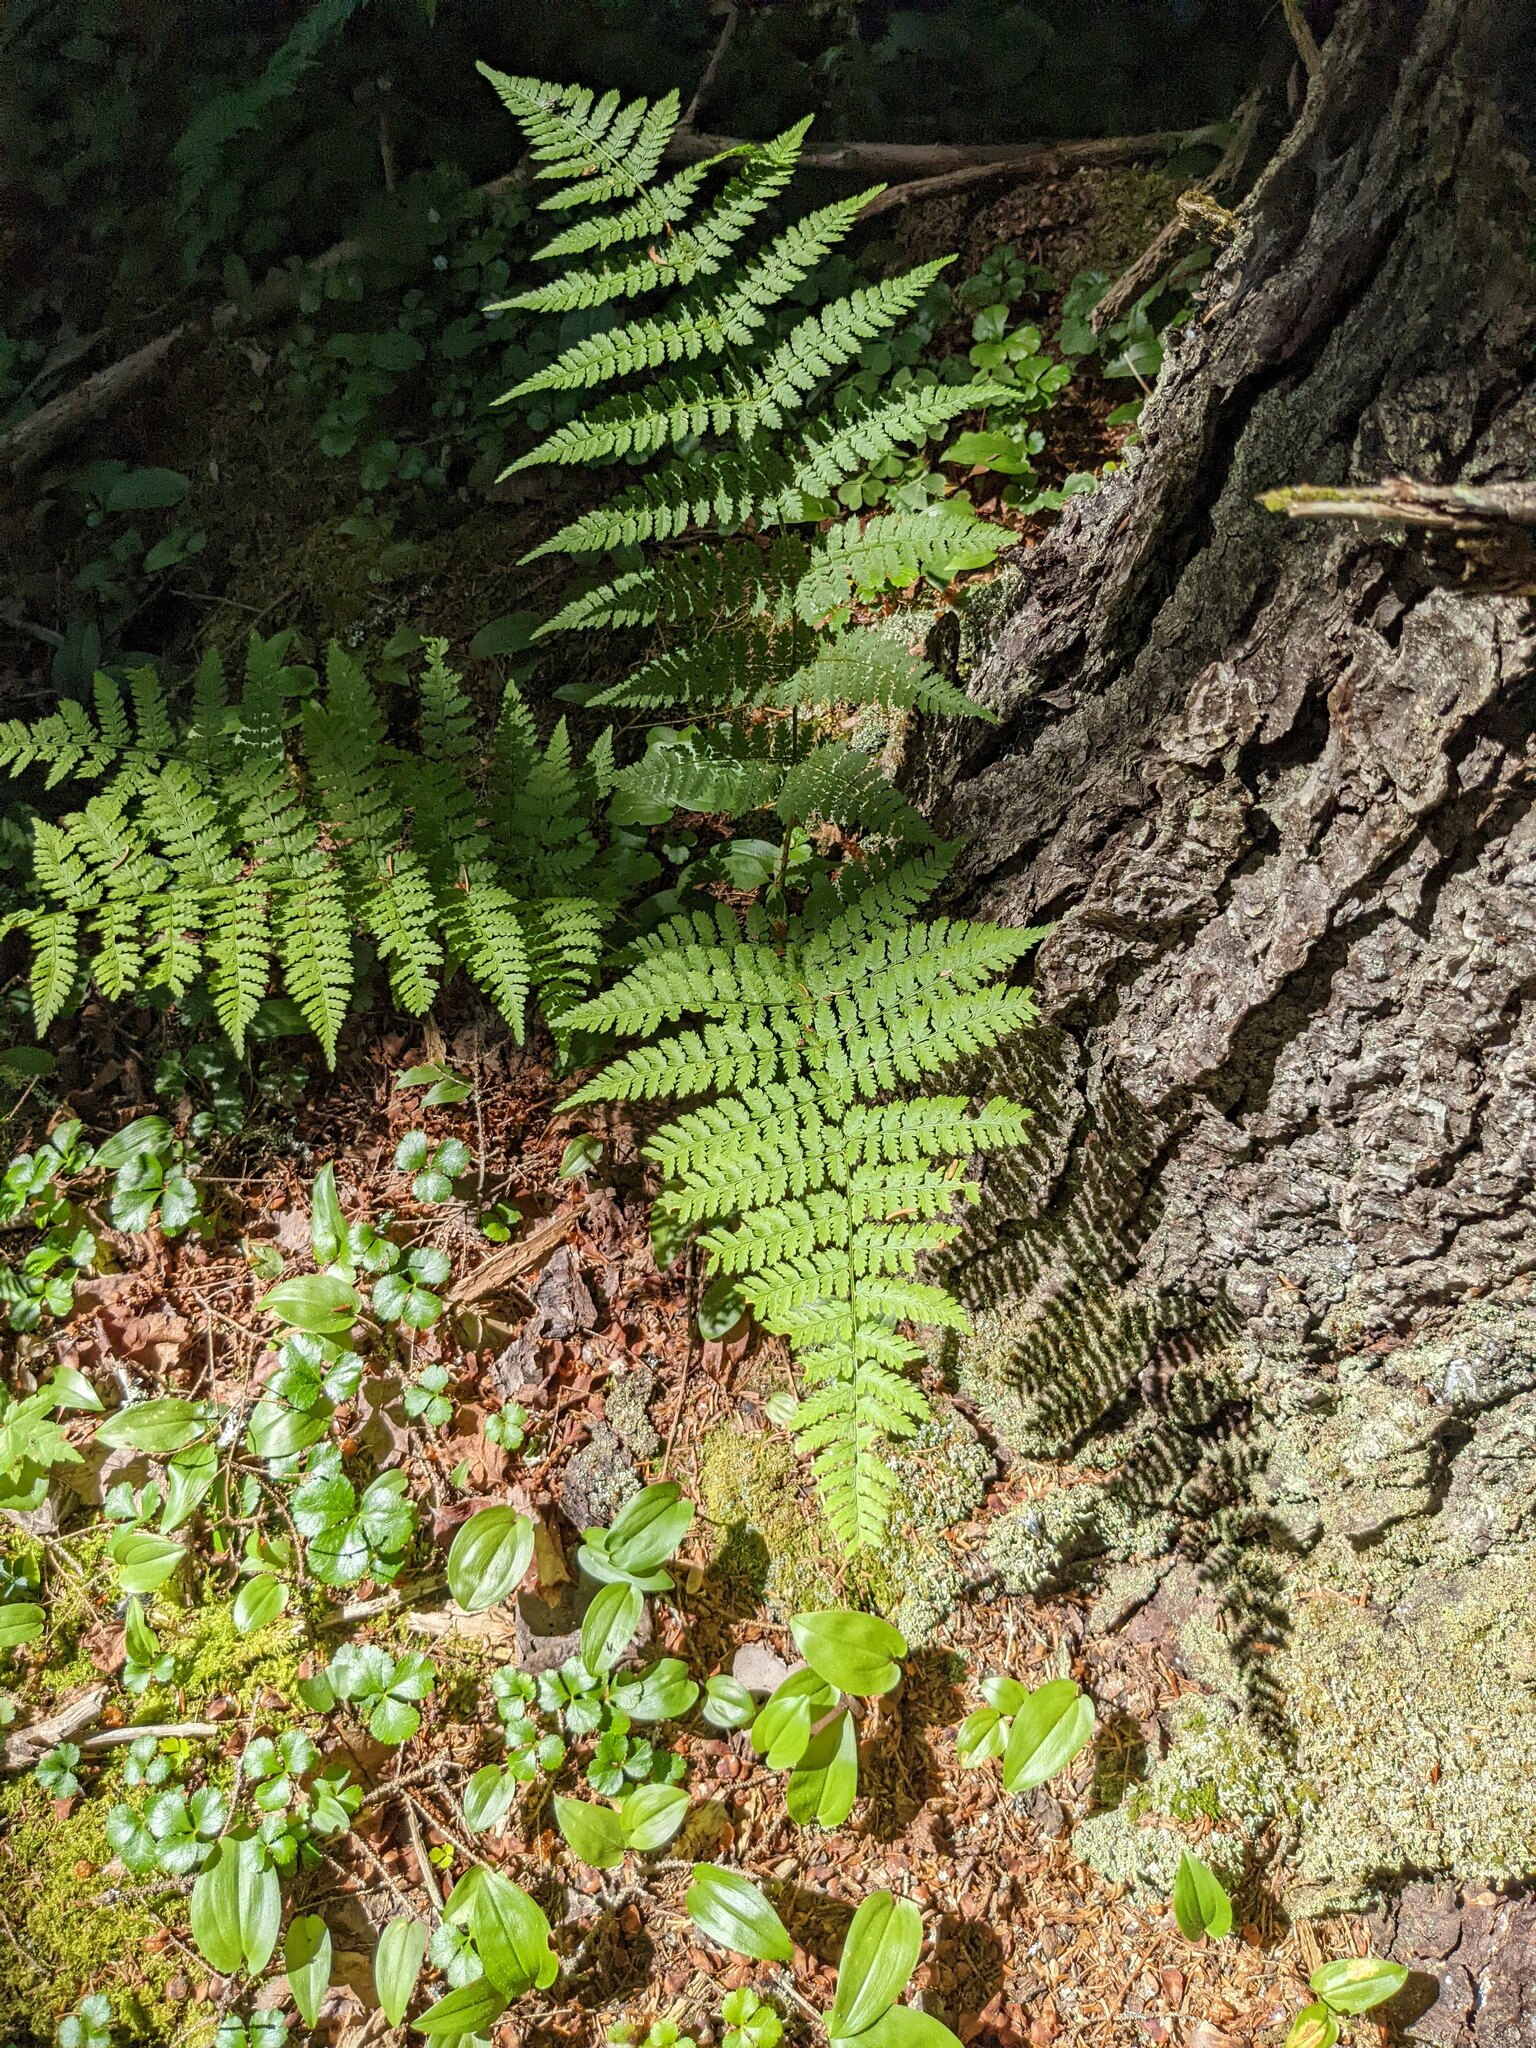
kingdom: Plantae
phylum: Tracheophyta
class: Polypodiopsida
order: Polypodiales
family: Dryopteridaceae
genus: Dryopteris
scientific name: Dryopteris intermedia
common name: Evergreen wood fern
